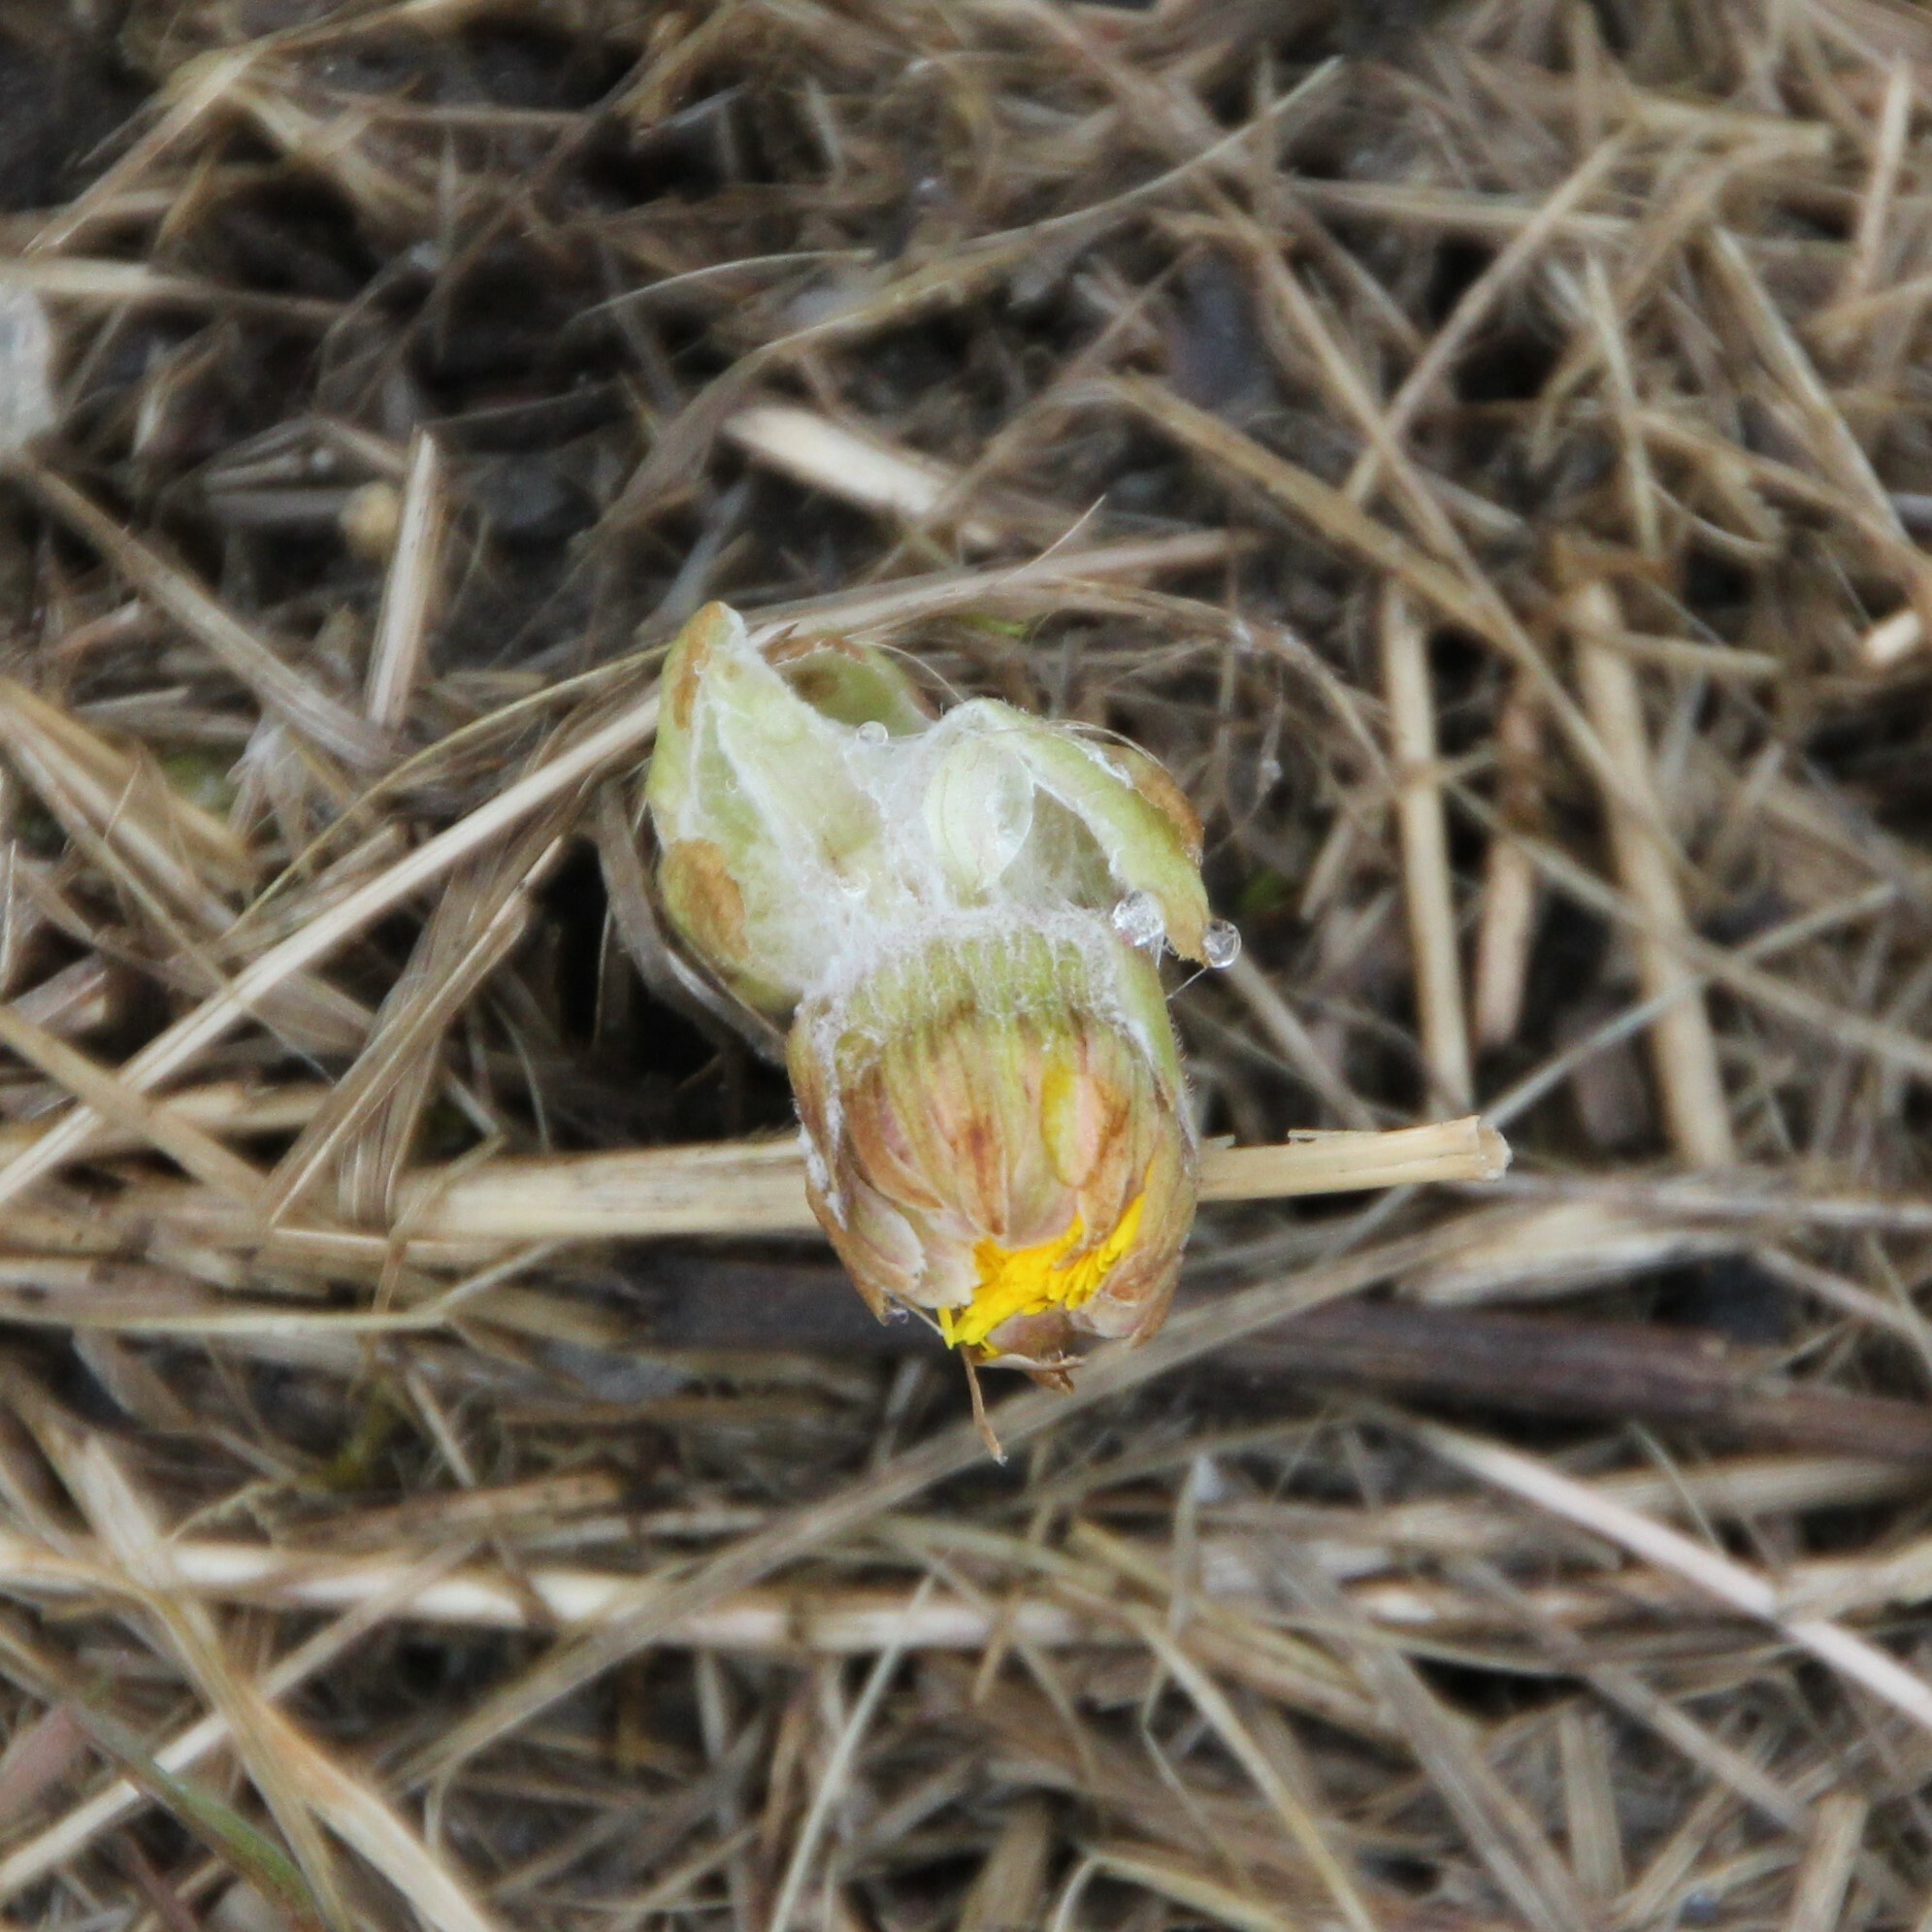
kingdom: Plantae
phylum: Tracheophyta
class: Magnoliopsida
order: Asterales
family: Asteraceae
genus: Tussilago
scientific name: Tussilago farfara
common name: Coltsfoot
